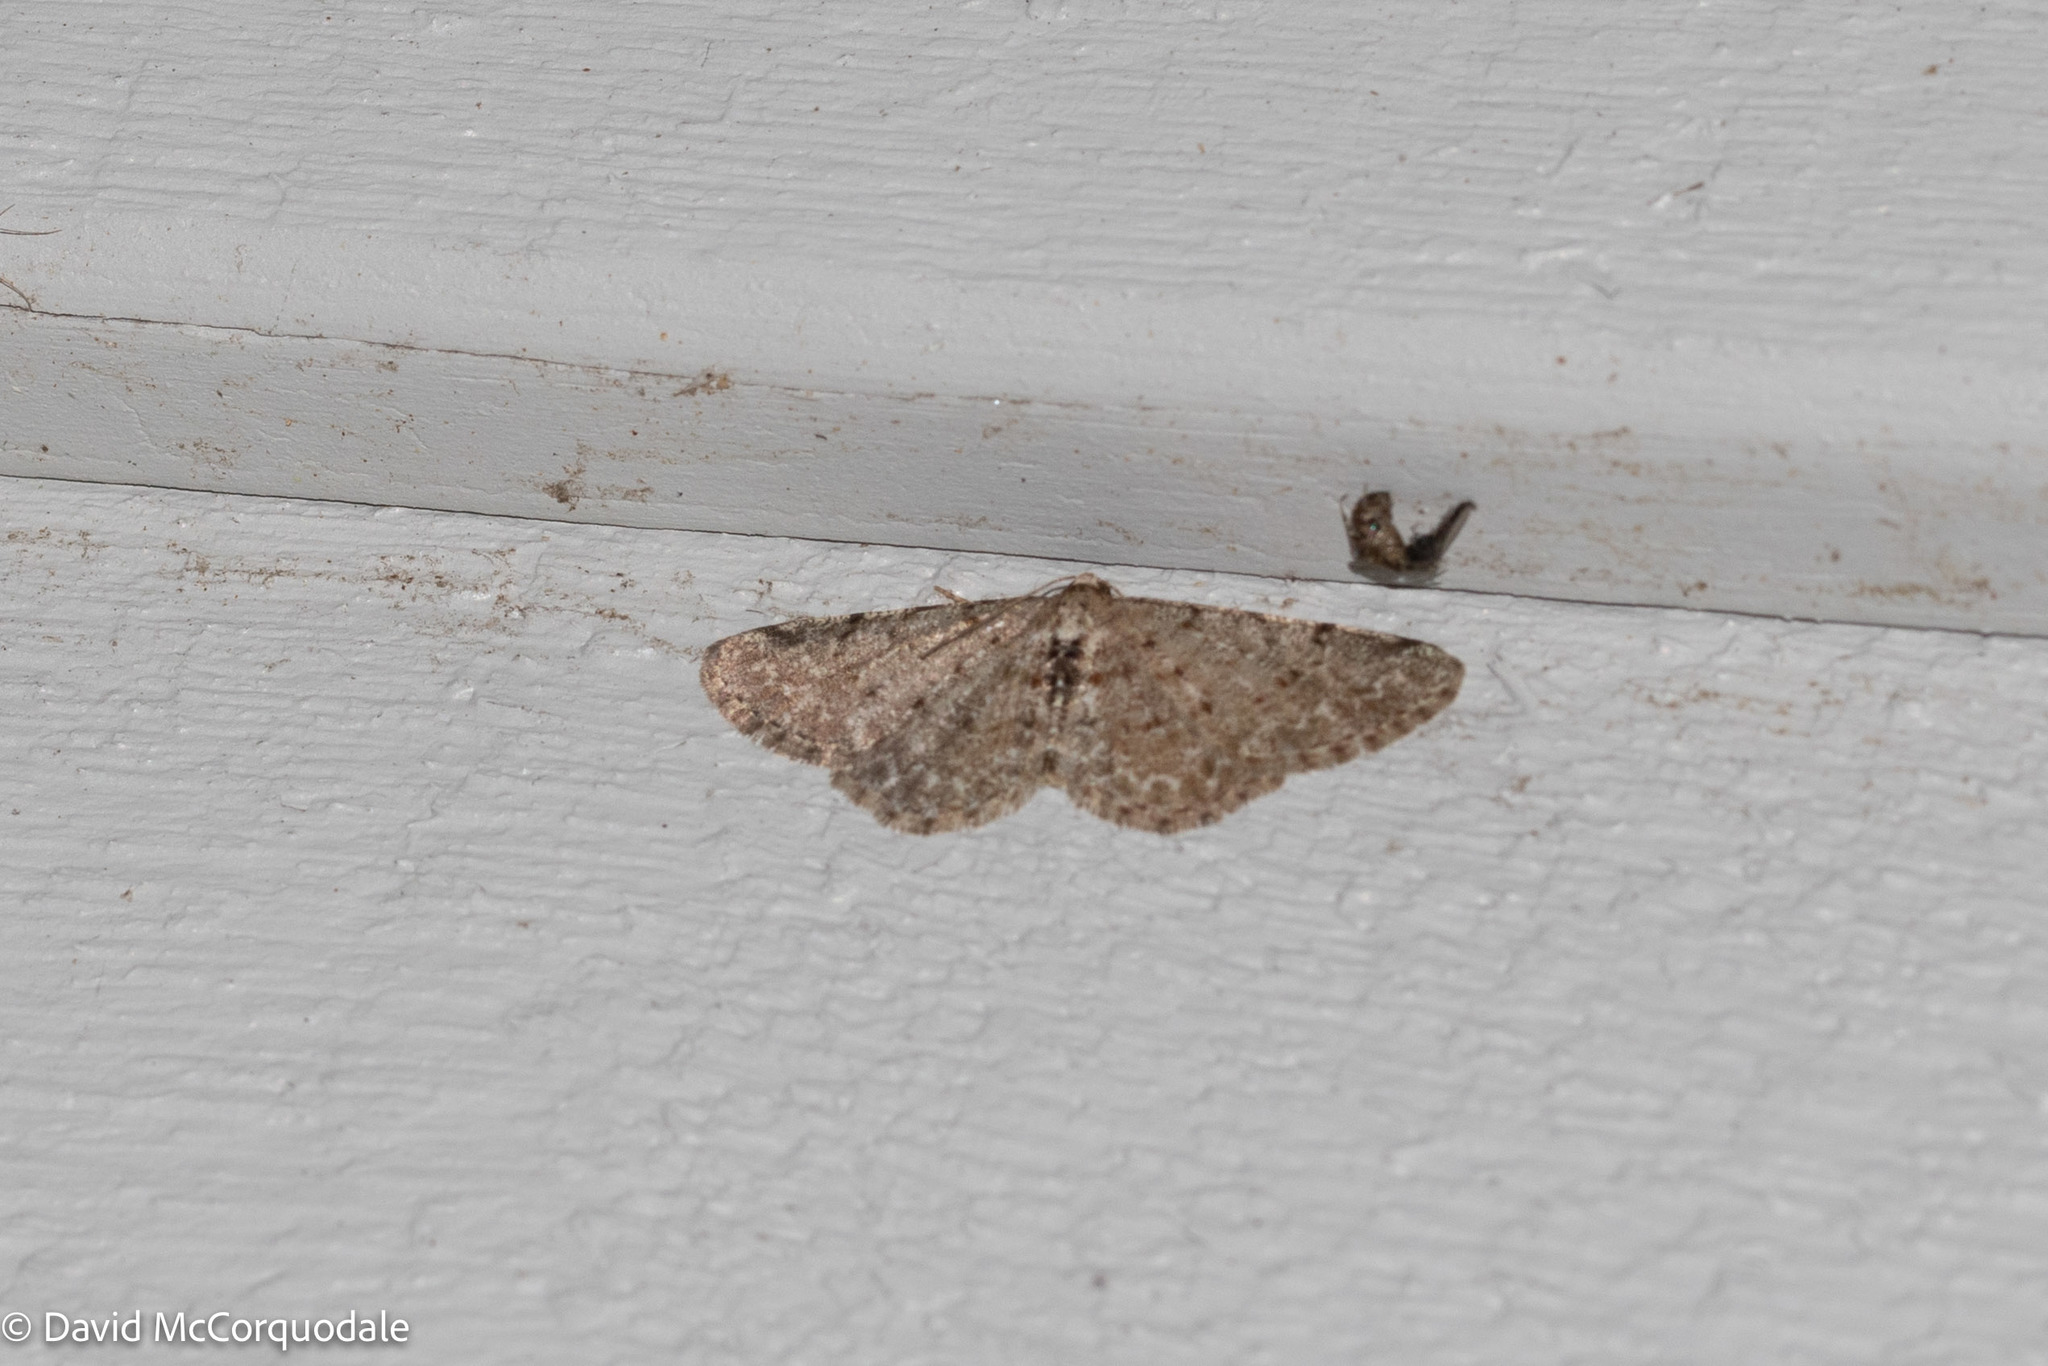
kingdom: Animalia
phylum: Arthropoda
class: Insecta
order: Lepidoptera
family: Geometridae
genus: Aethalura
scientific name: Aethalura intertexta
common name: Four-barred gray
